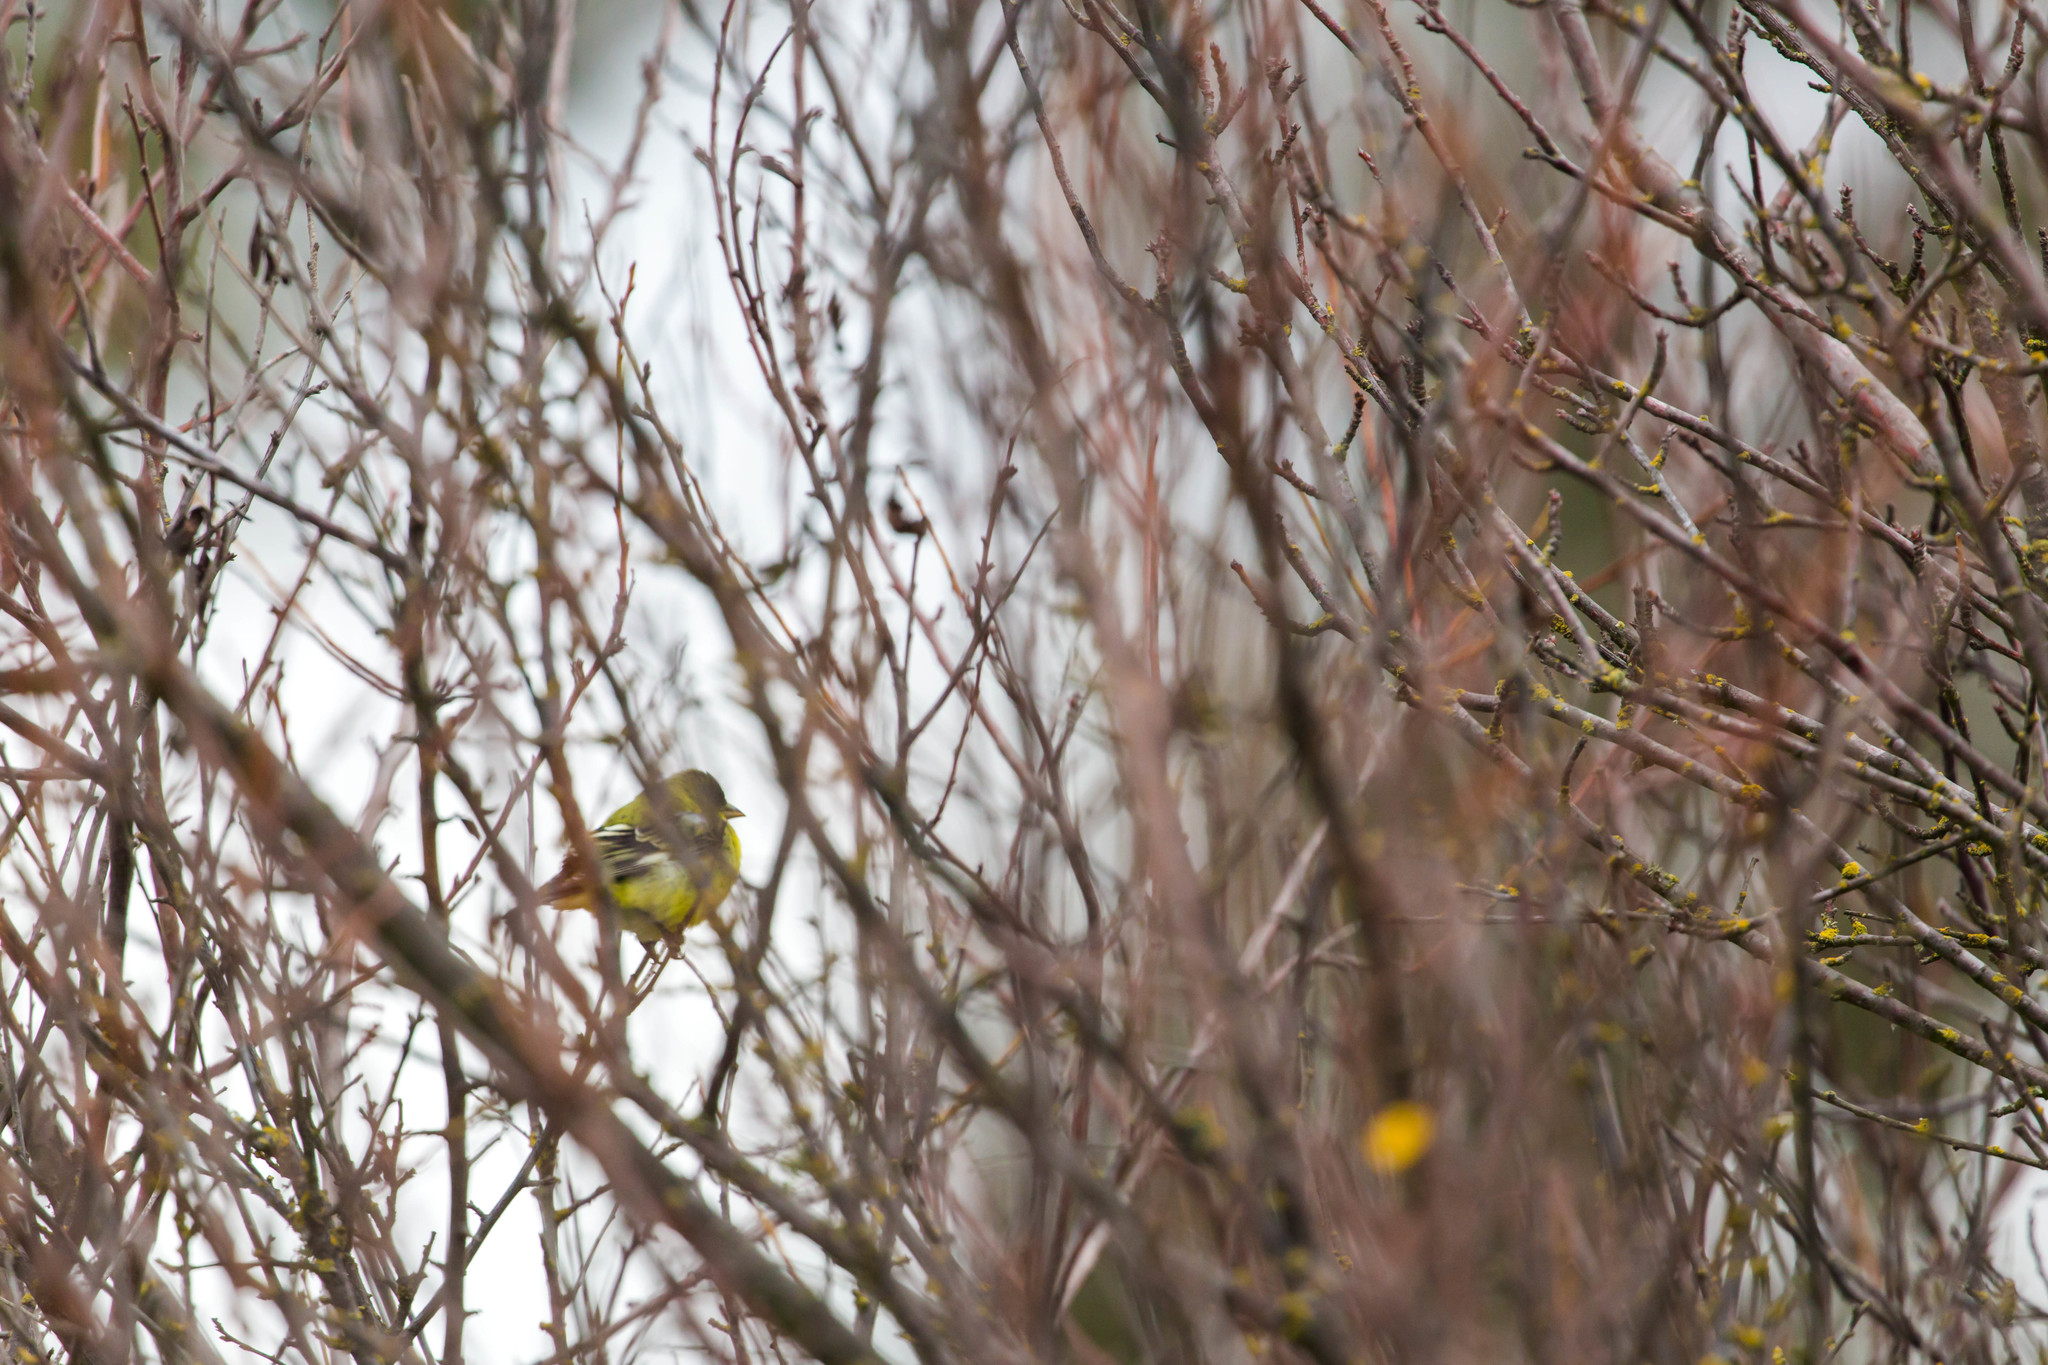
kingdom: Animalia
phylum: Chordata
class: Aves
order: Passeriformes
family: Fringillidae
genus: Spinus
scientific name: Spinus psaltria
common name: Lesser goldfinch
